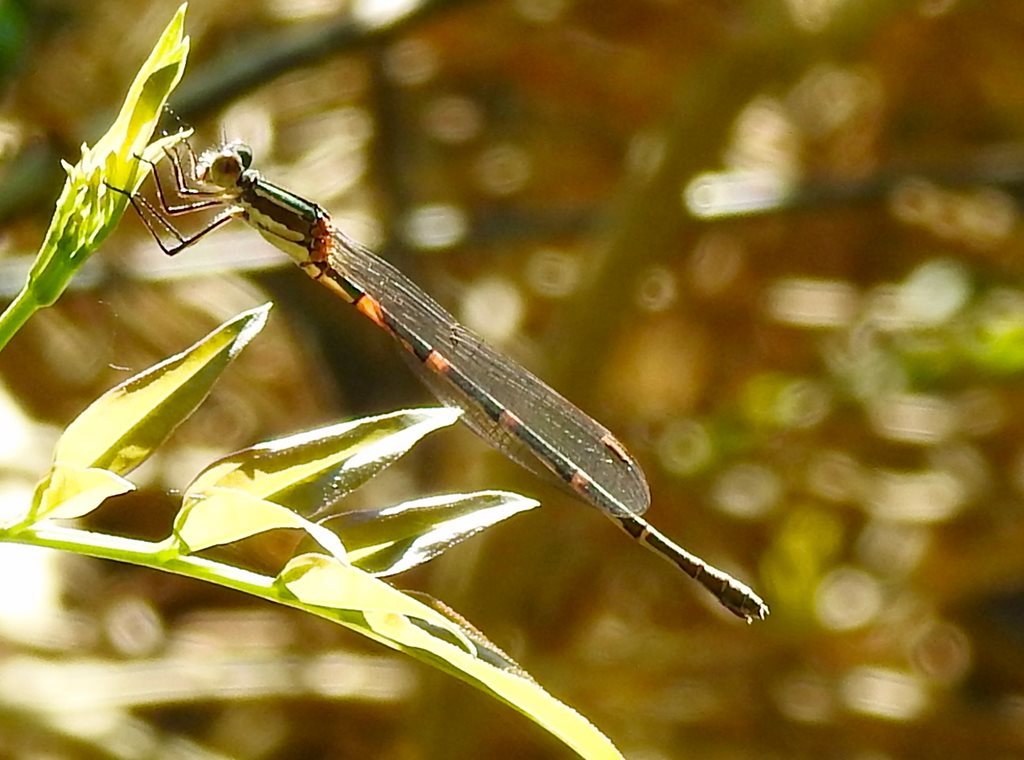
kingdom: Animalia
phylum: Arthropoda
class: Insecta
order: Odonata
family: Lestidae
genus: Austrolestes
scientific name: Austrolestes leda
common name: Wandering ringtail
